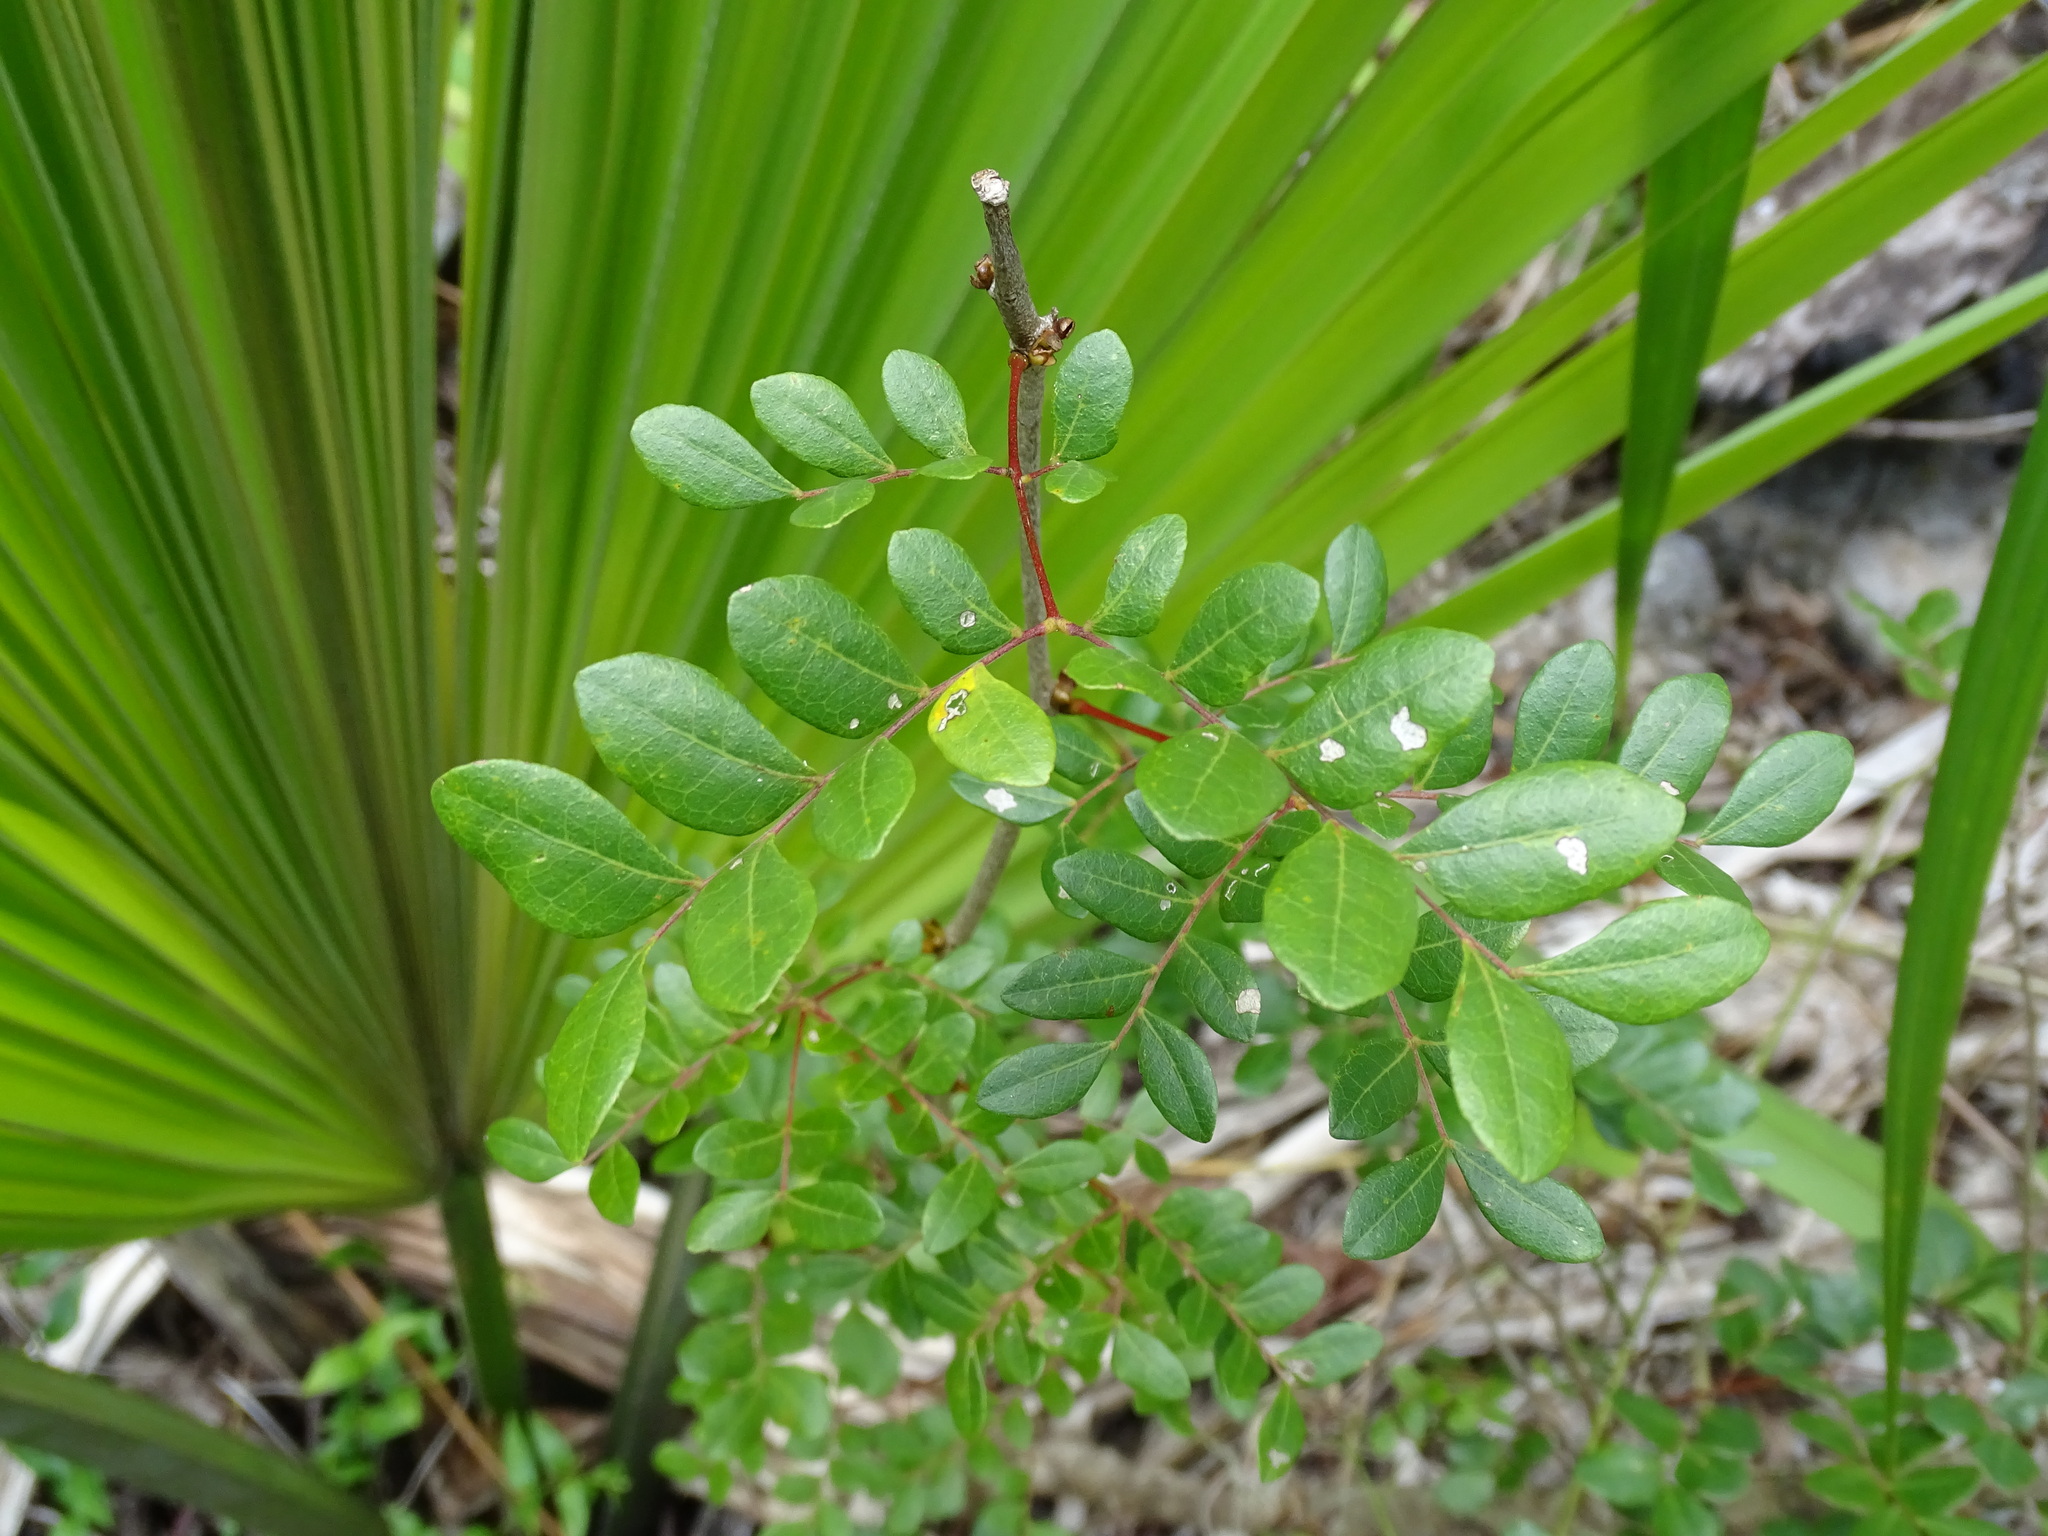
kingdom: Plantae
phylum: Tracheophyta
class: Magnoliopsida
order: Fabales
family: Fabaceae
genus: Cenostigma
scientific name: Cenostigma gaumeri
